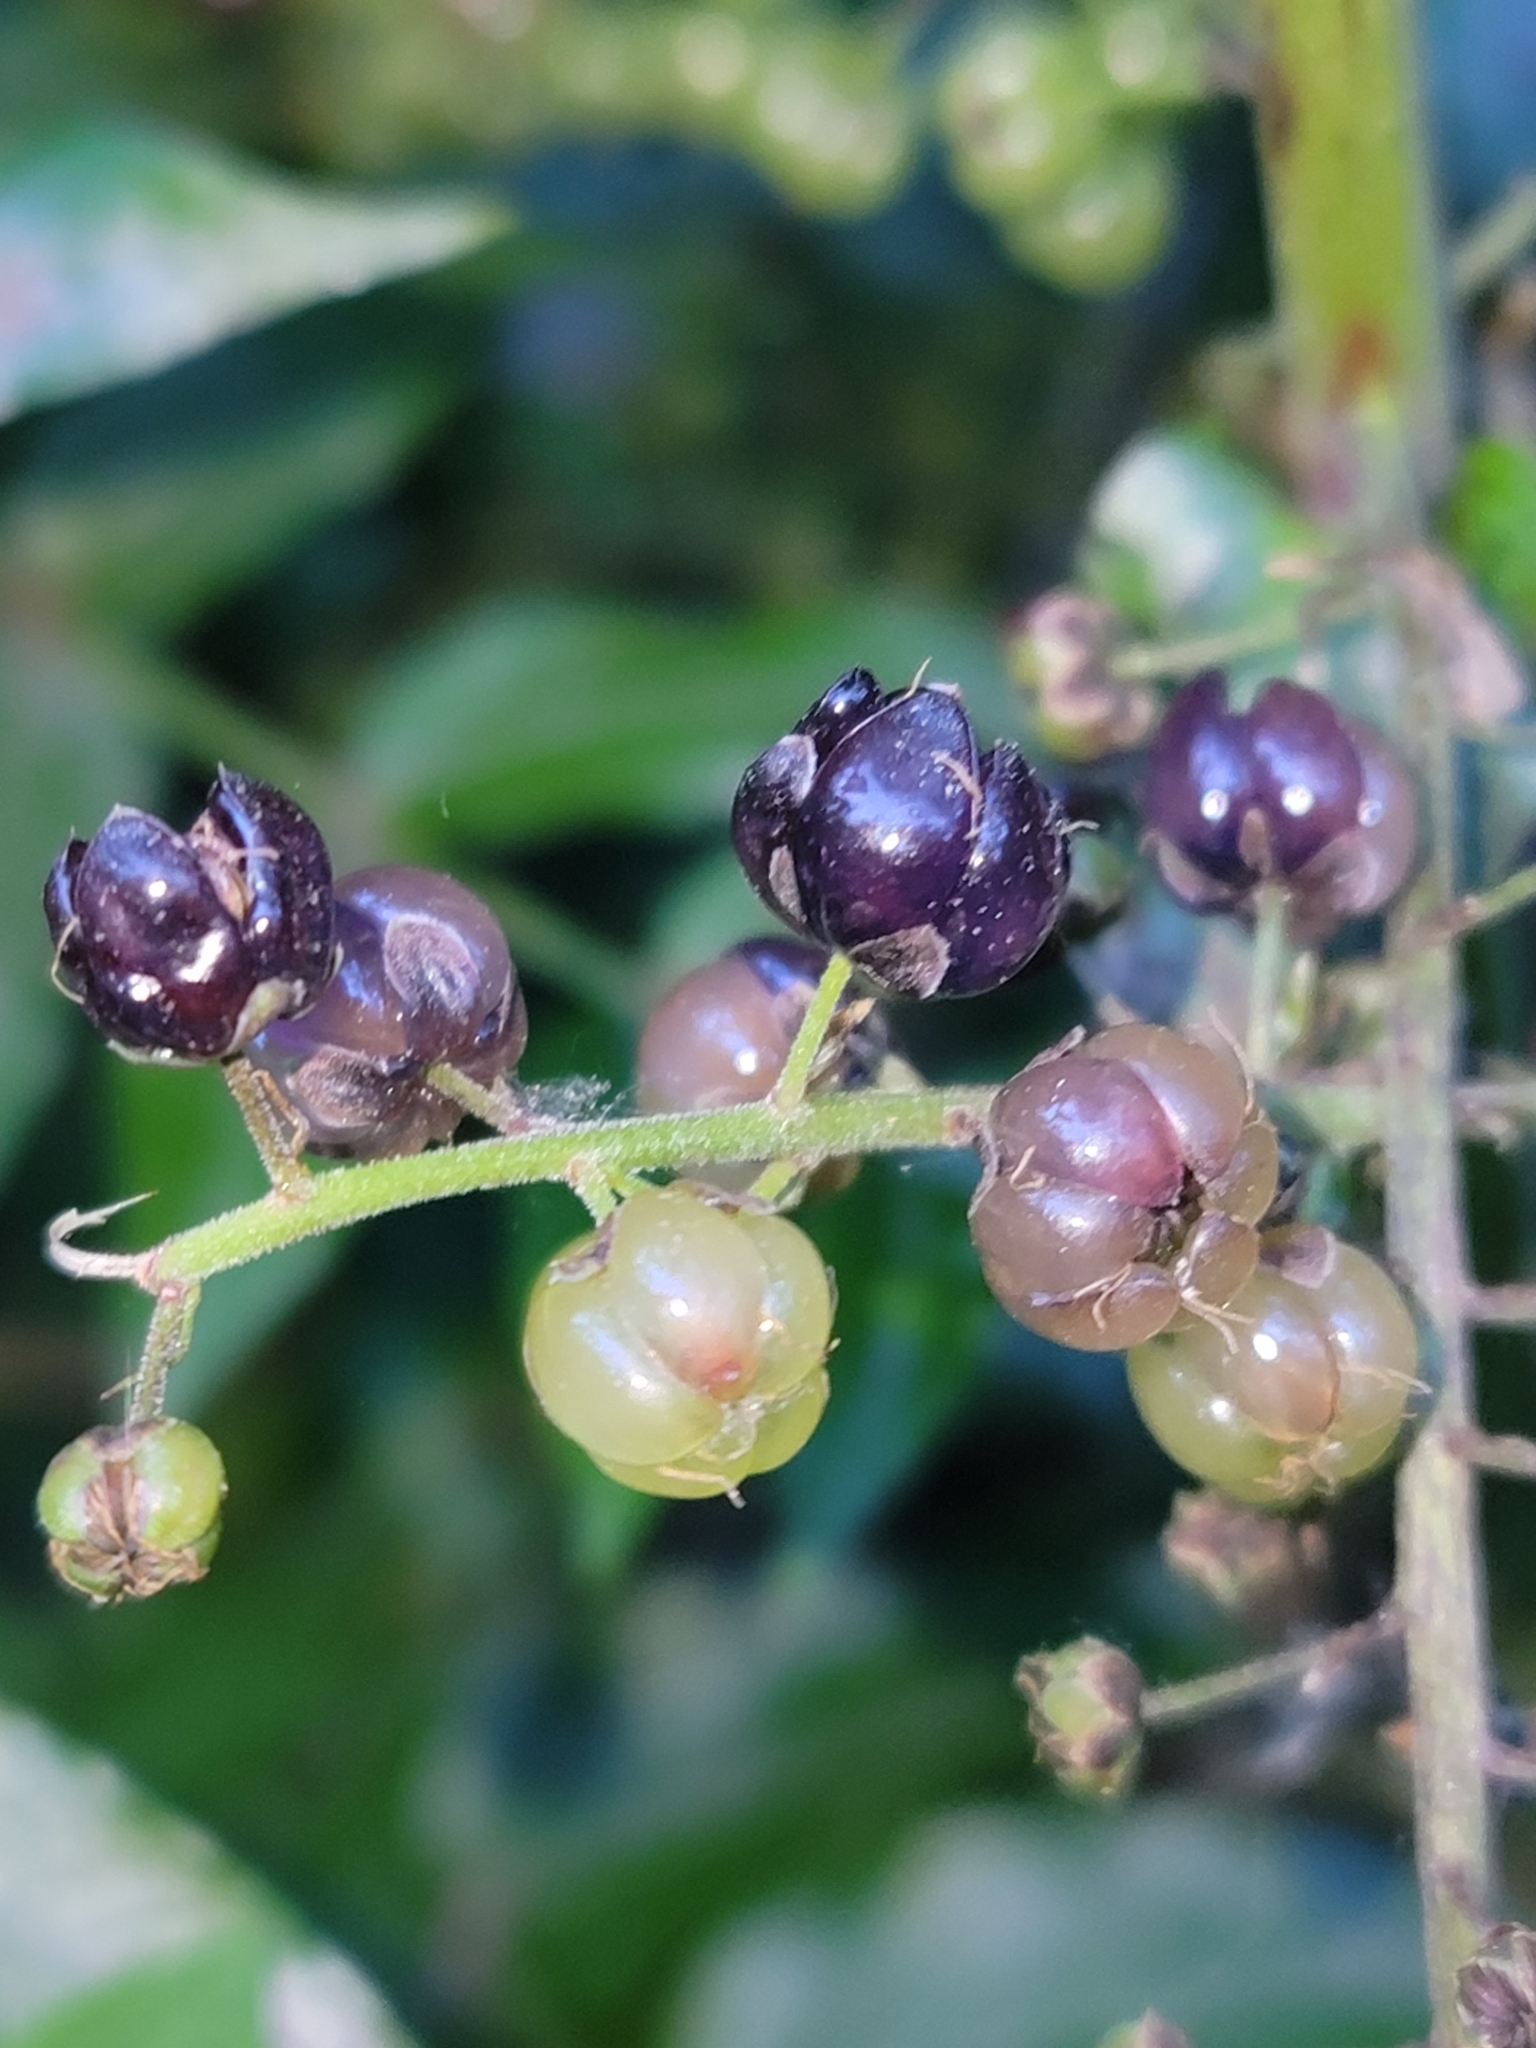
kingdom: Plantae
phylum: Tracheophyta
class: Magnoliopsida
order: Cucurbitales
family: Coriariaceae
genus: Coriaria
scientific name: Coriaria arborea
